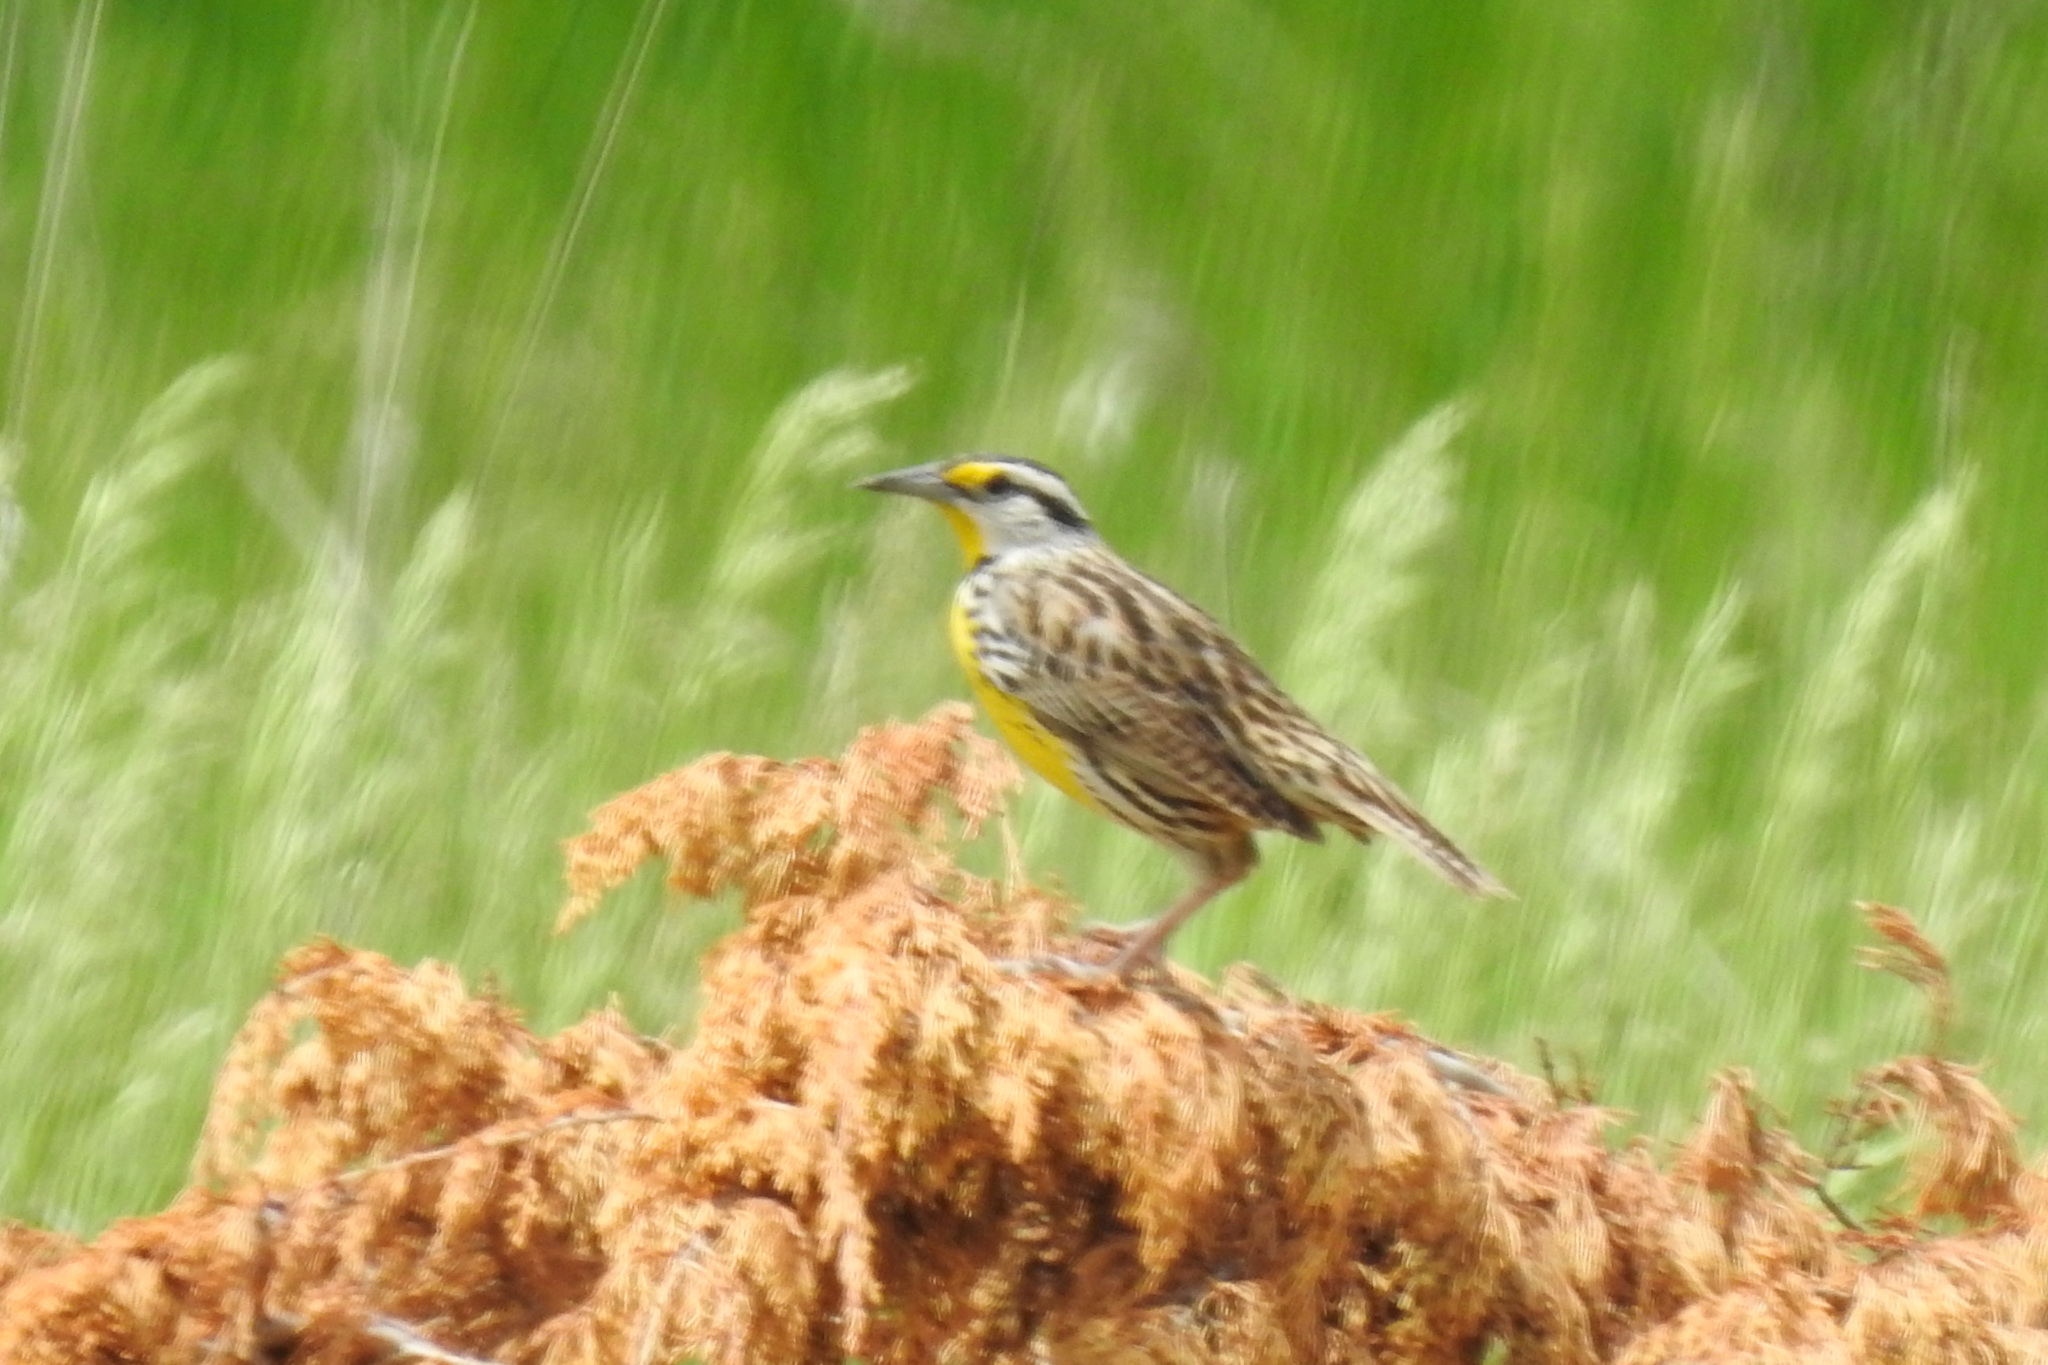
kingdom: Animalia
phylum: Chordata
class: Aves
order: Passeriformes
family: Icteridae
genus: Sturnella
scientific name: Sturnella magna
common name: Eastern meadowlark
